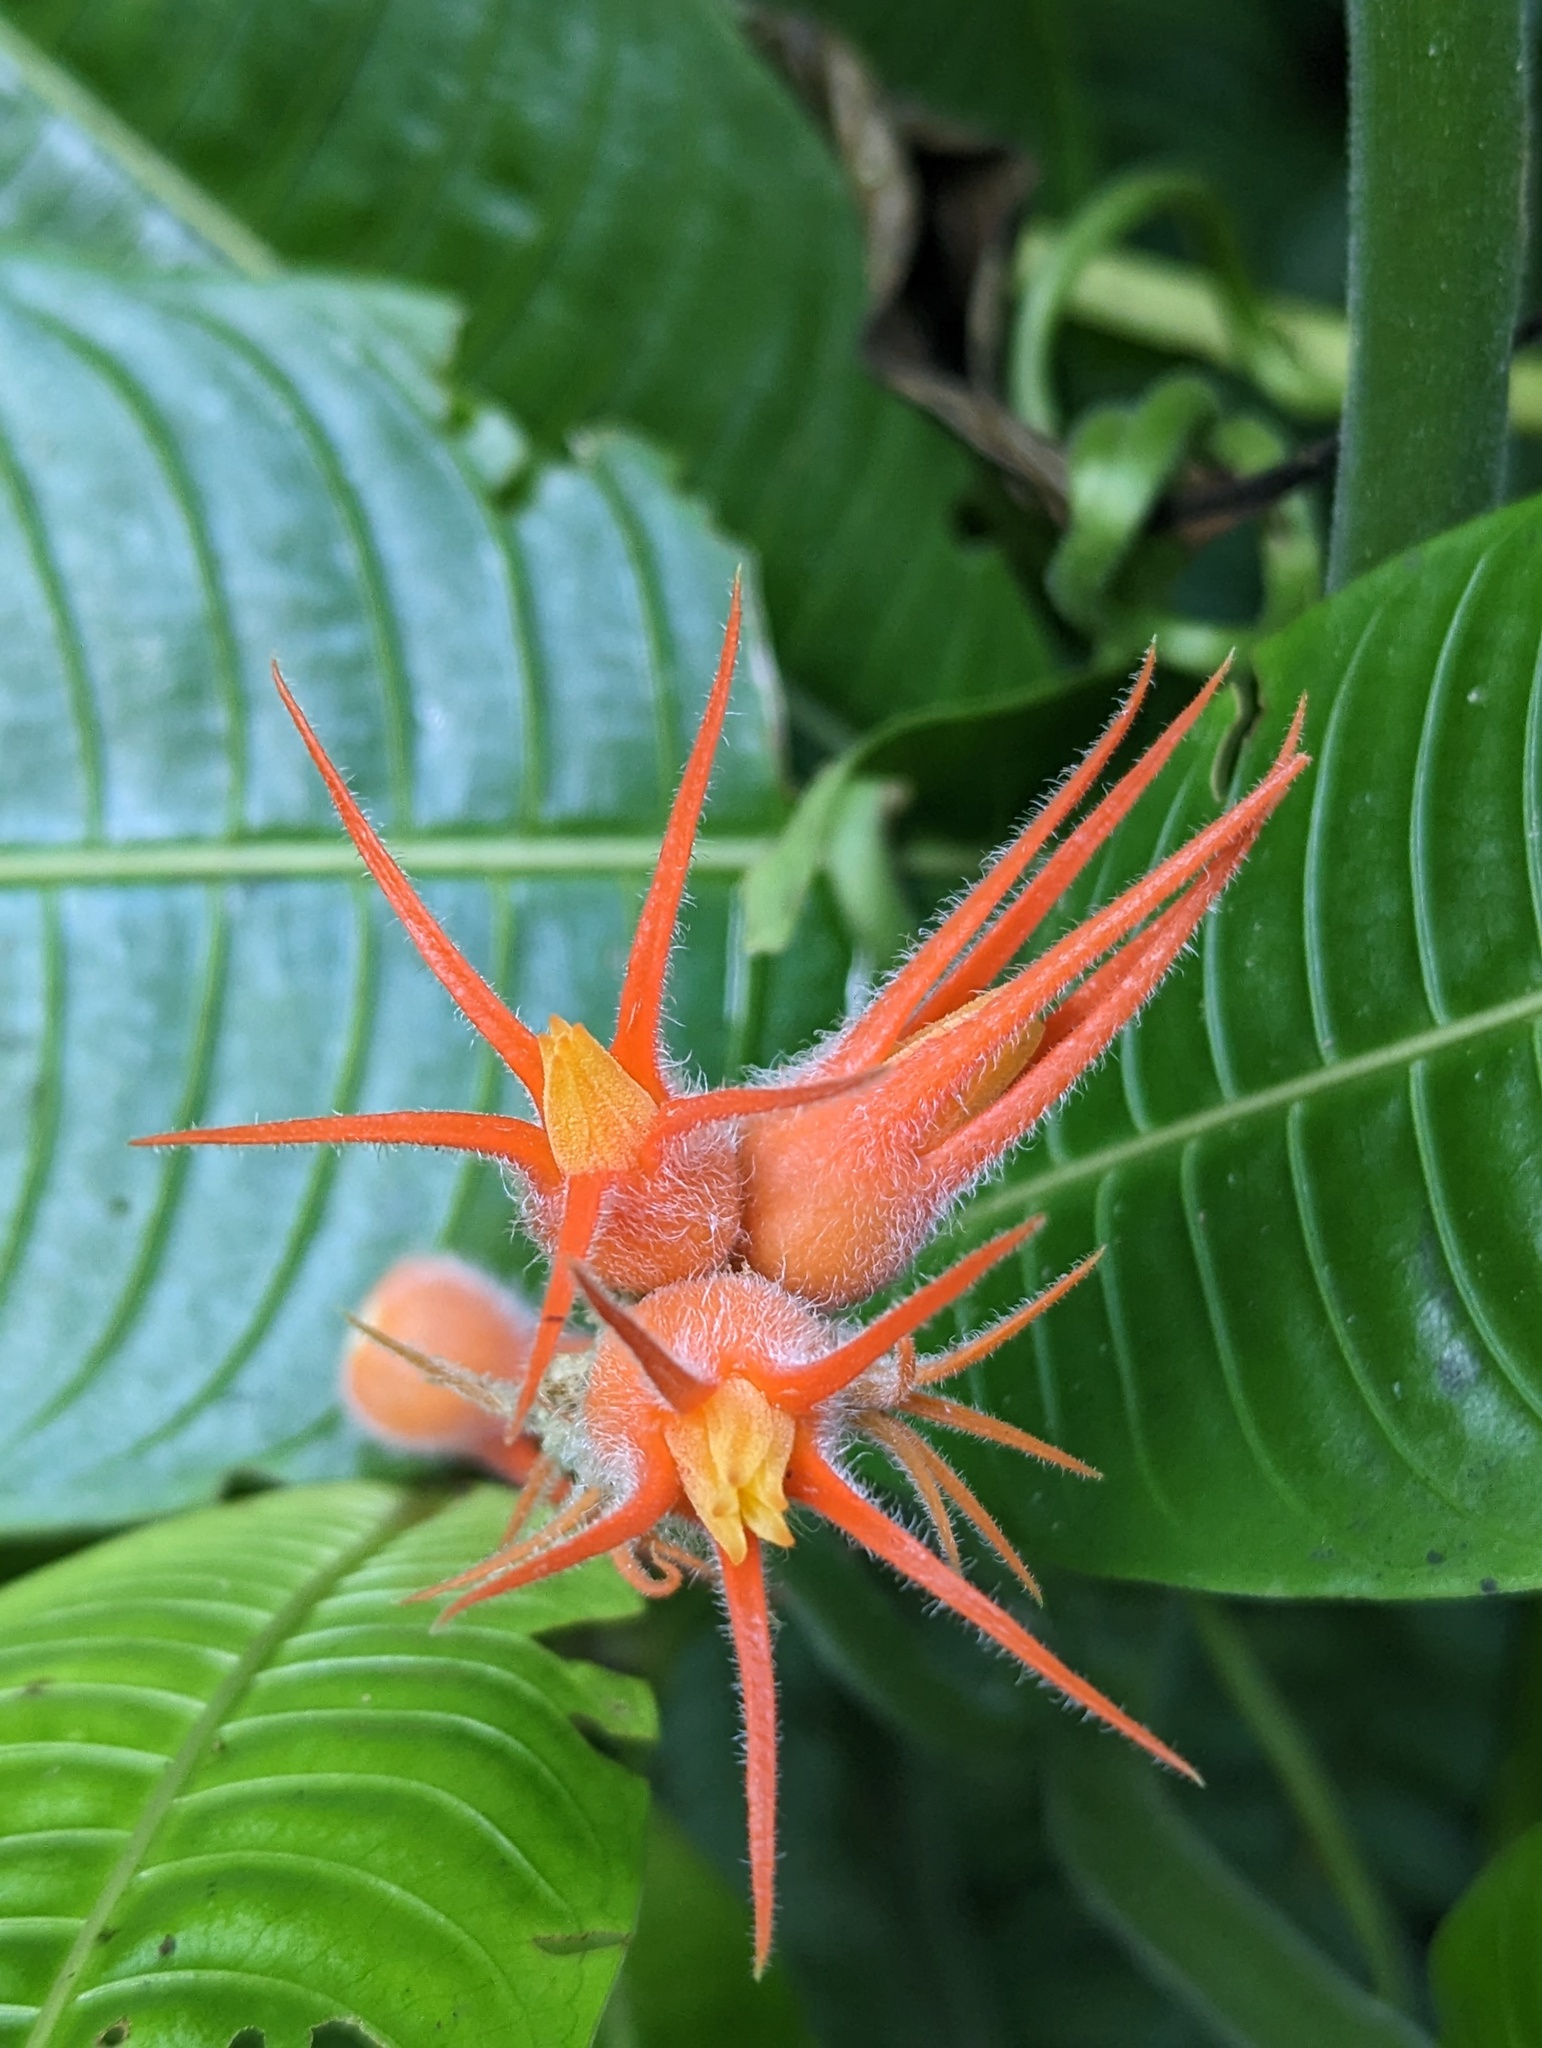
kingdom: Plantae
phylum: Tracheophyta
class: Magnoliopsida
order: Cucurbitales
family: Cucurbitaceae
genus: Gurania
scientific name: Gurania makoyana
